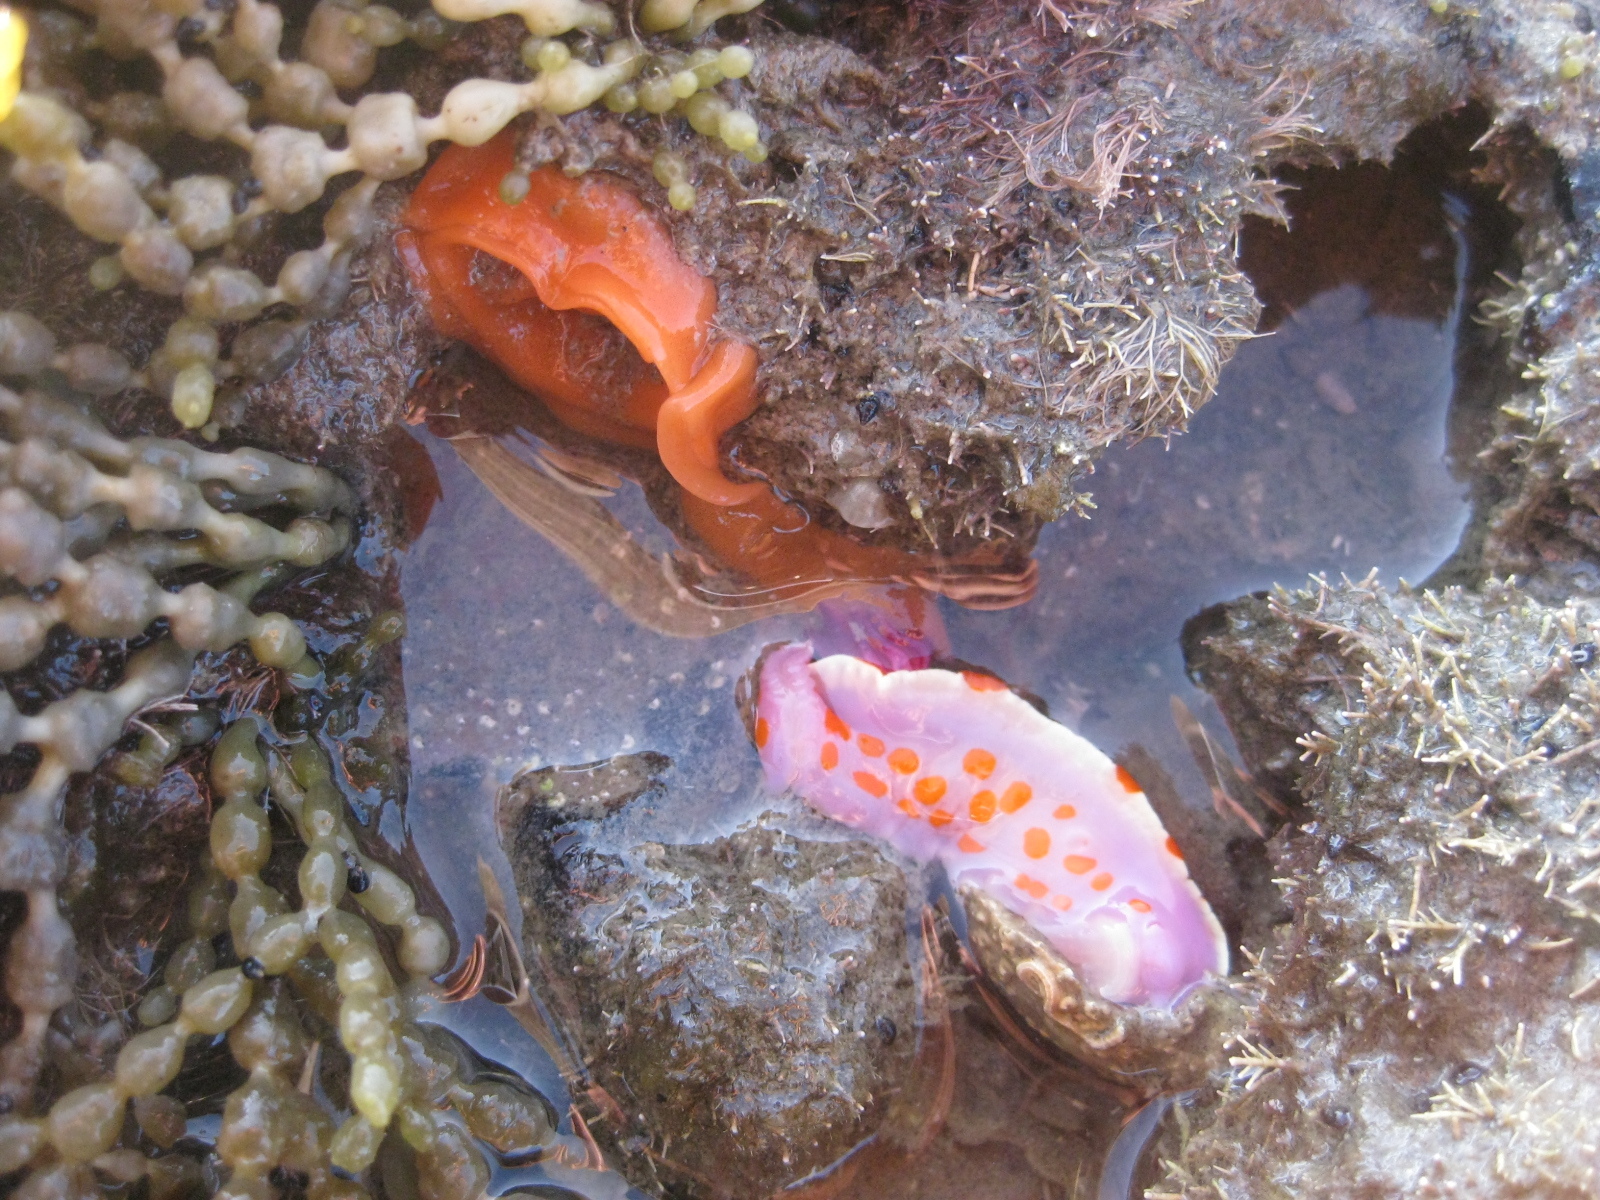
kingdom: Animalia
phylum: Mollusca
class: Gastropoda
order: Nudibranchia
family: Chromodorididae
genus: Ceratosoma
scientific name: Ceratosoma amoenum
